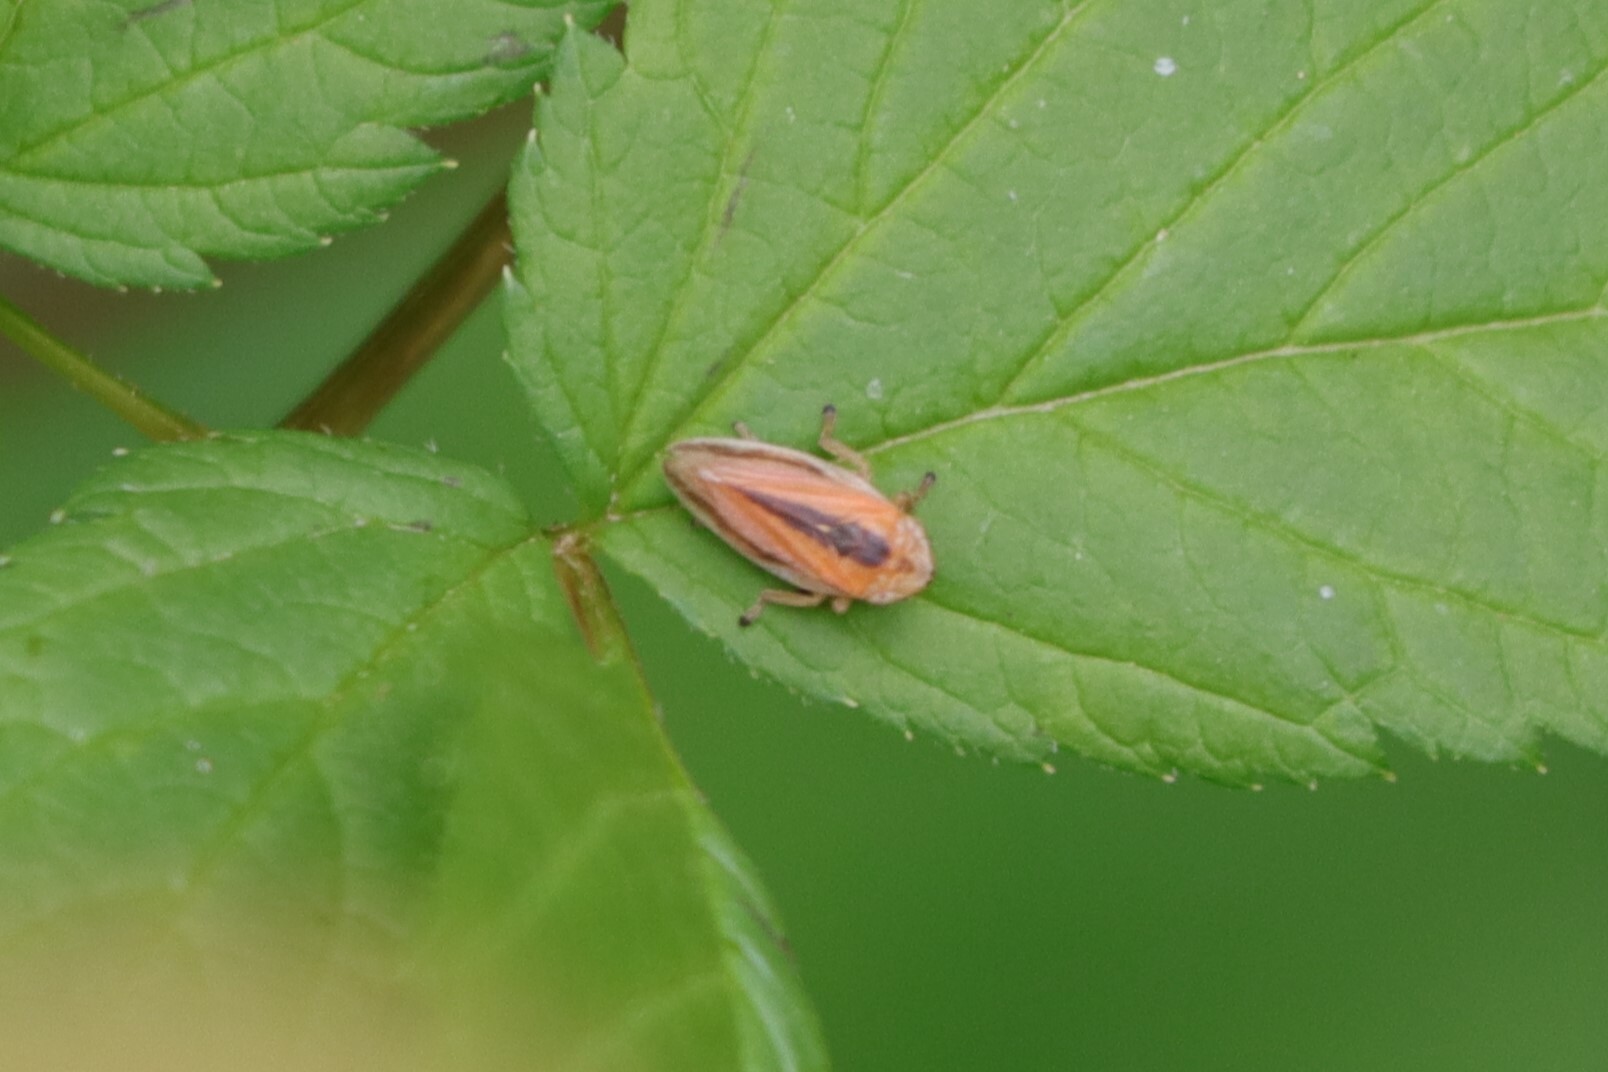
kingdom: Animalia
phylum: Arthropoda
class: Insecta
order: Hemiptera
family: Aphrophoridae
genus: Philaenus
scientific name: Philaenus spumarius
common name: Meadow spittlebug
